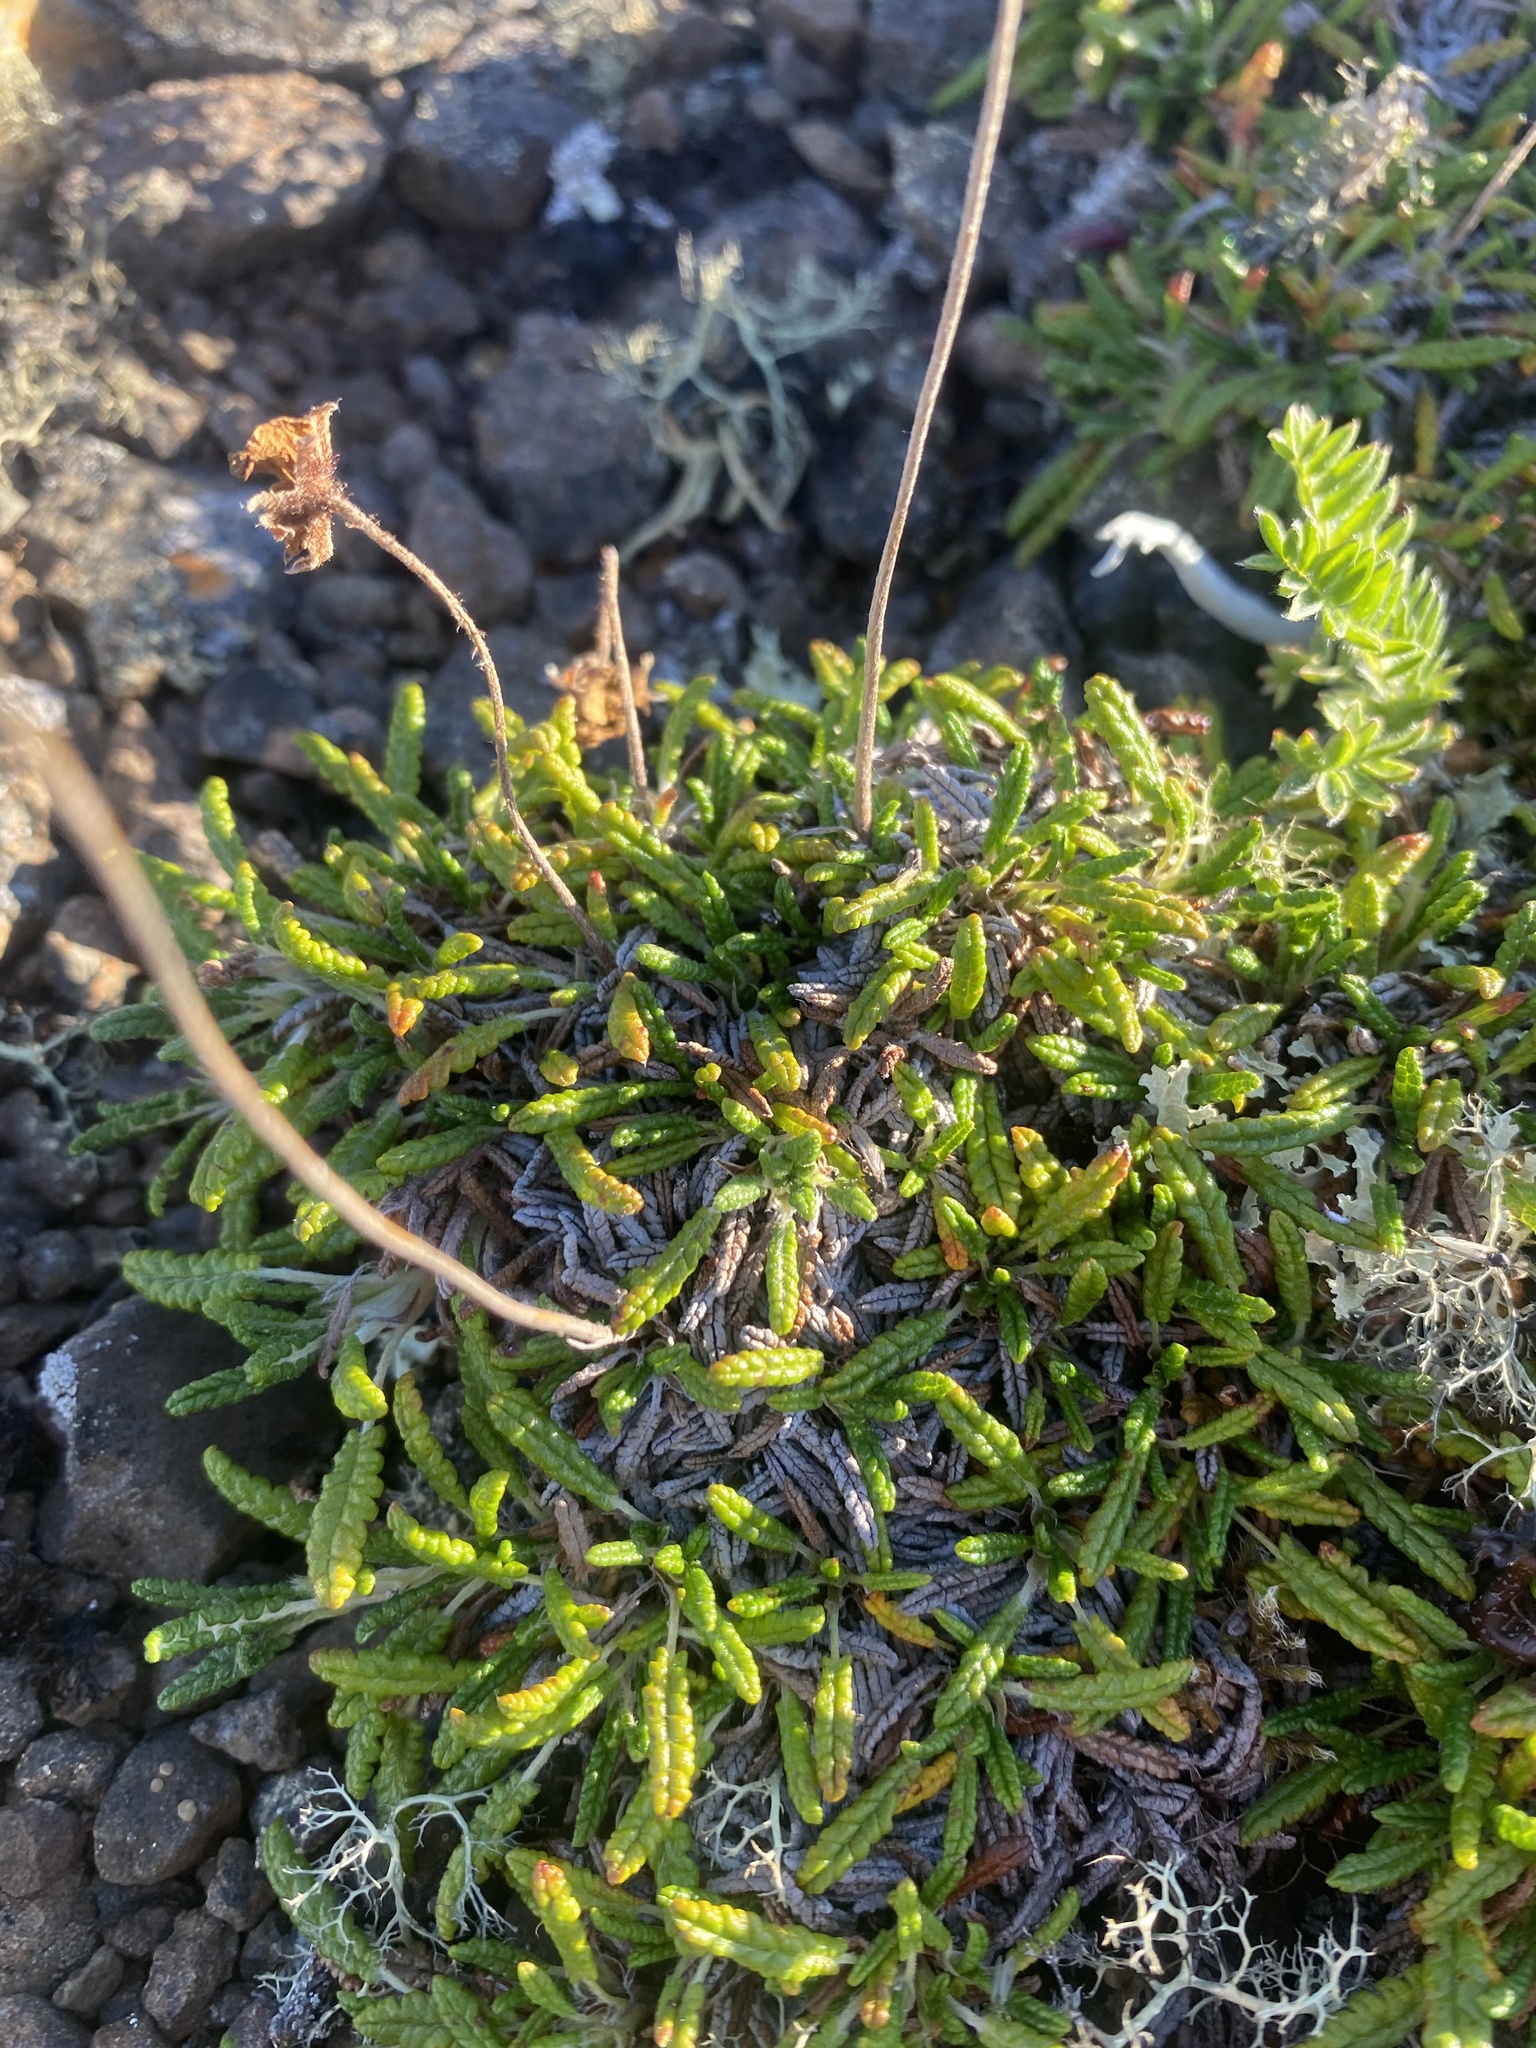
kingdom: Plantae
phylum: Tracheophyta
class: Magnoliopsida
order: Rosales
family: Rosaceae
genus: Dryas
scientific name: Dryas octopetala
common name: Eight-petal mountain-avens
